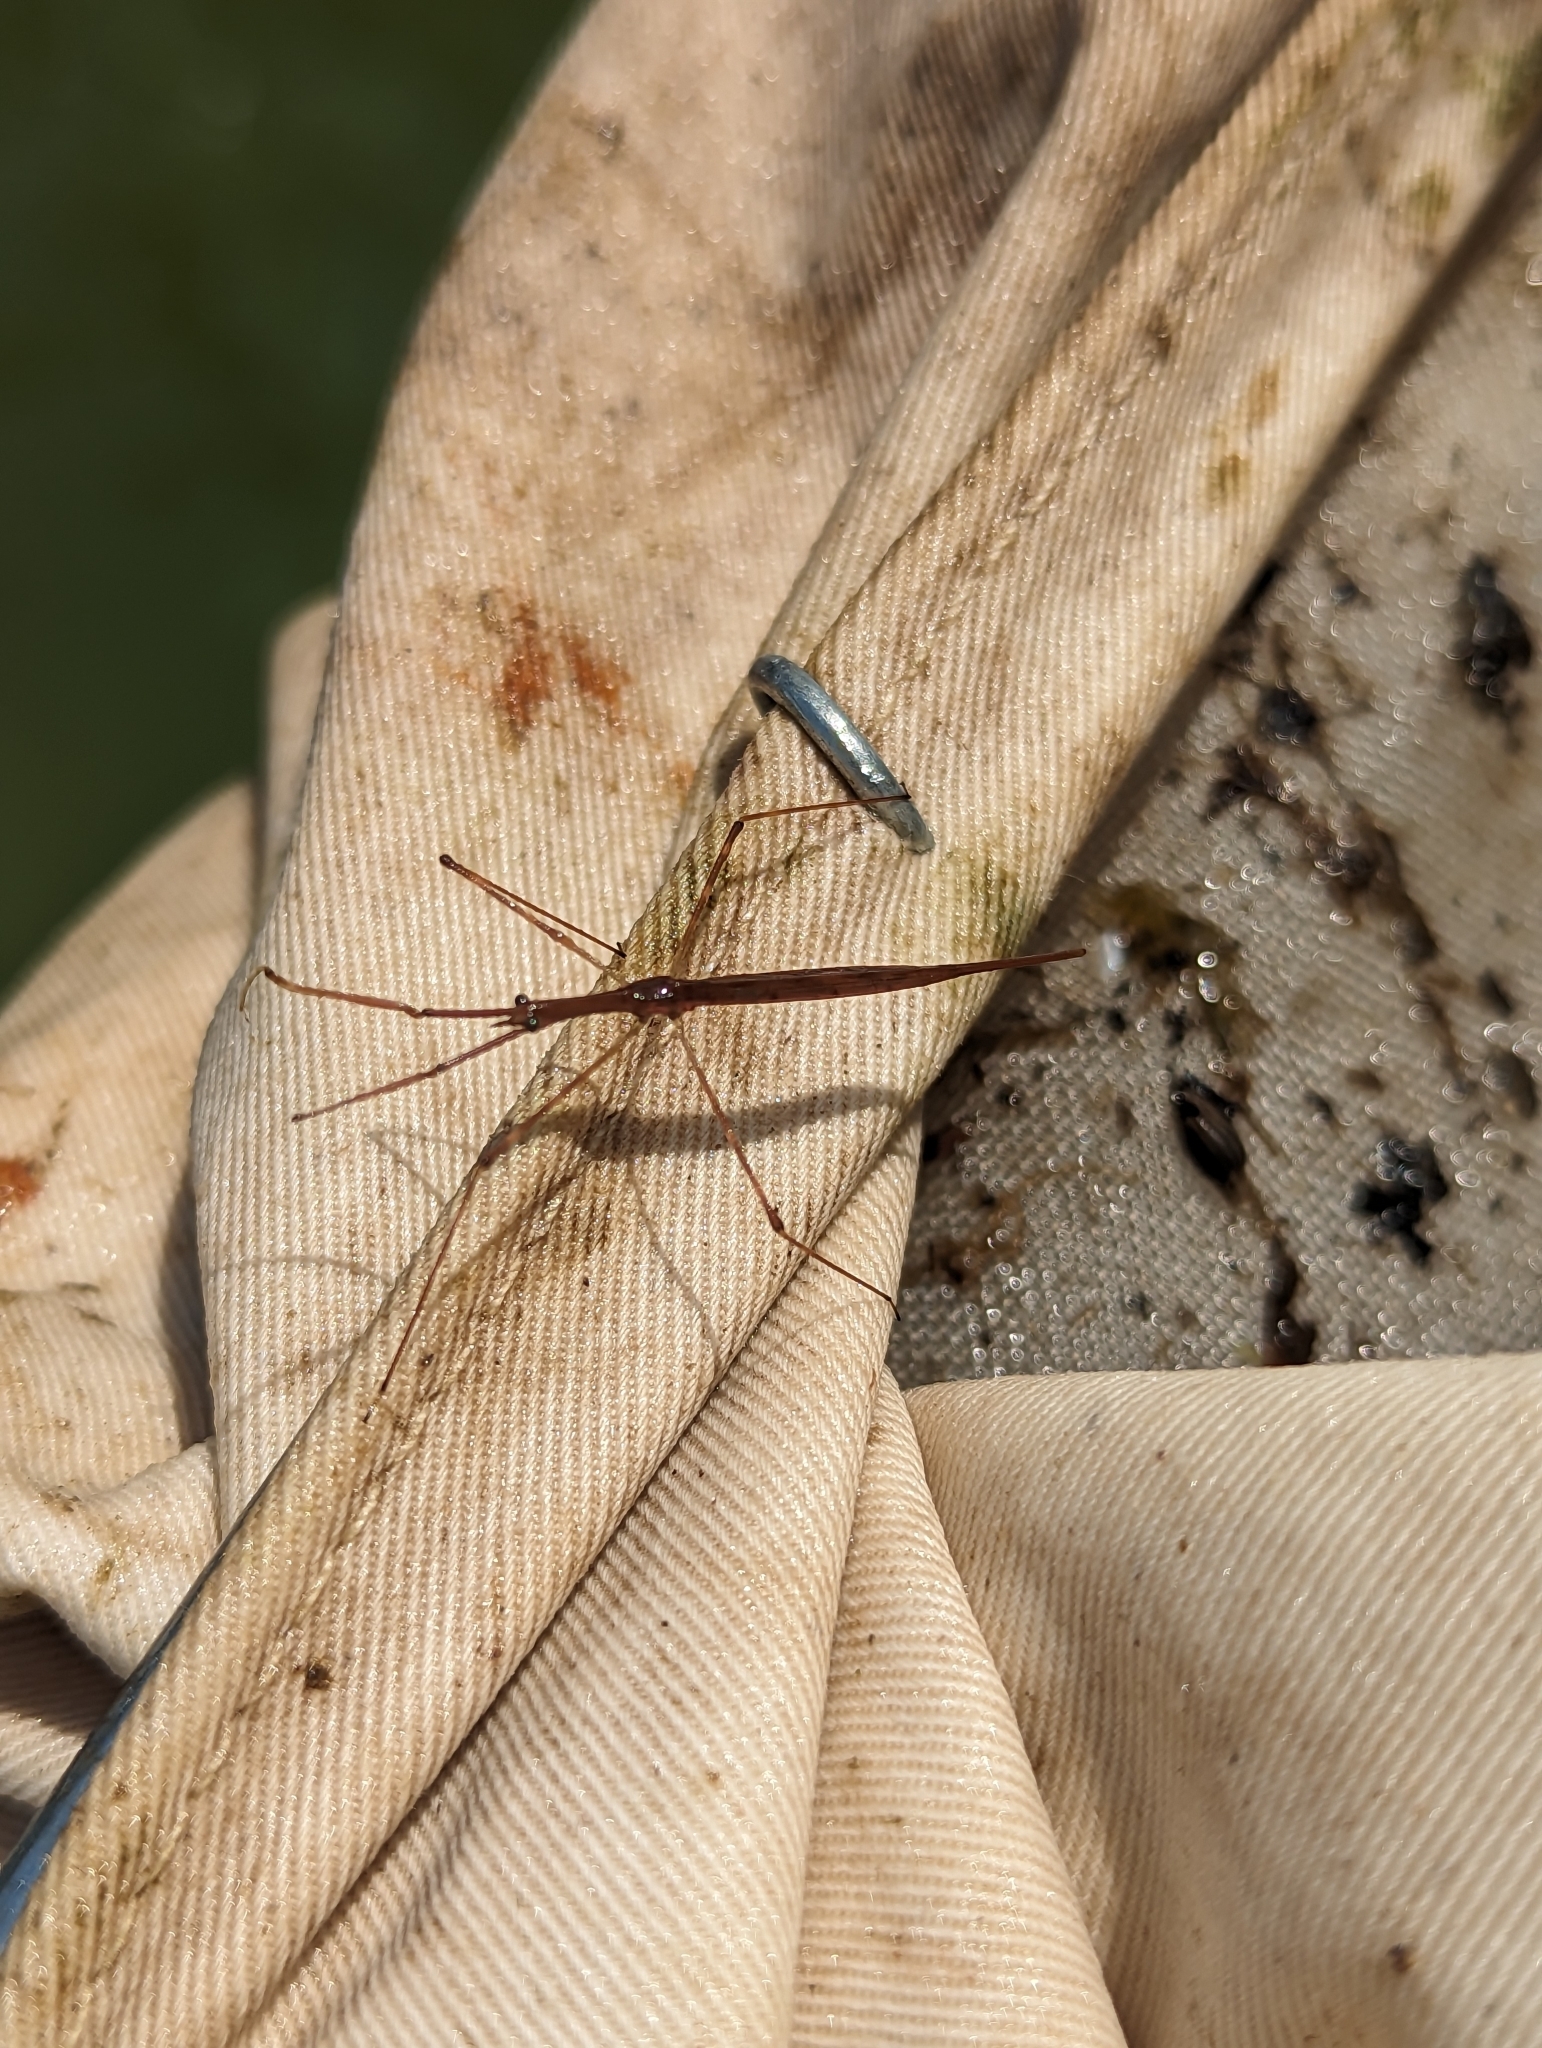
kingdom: Animalia
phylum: Arthropoda
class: Insecta
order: Hemiptera
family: Nepidae
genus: Ranatra
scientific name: Ranatra
